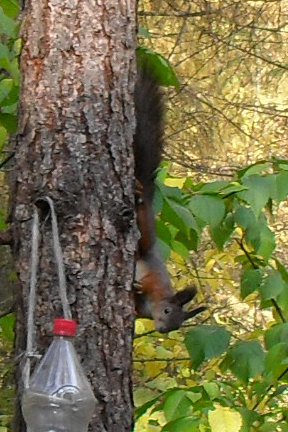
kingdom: Animalia
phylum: Chordata
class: Mammalia
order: Rodentia
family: Sciuridae
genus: Sciurus
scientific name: Sciurus vulgaris
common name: Eurasian red squirrel
